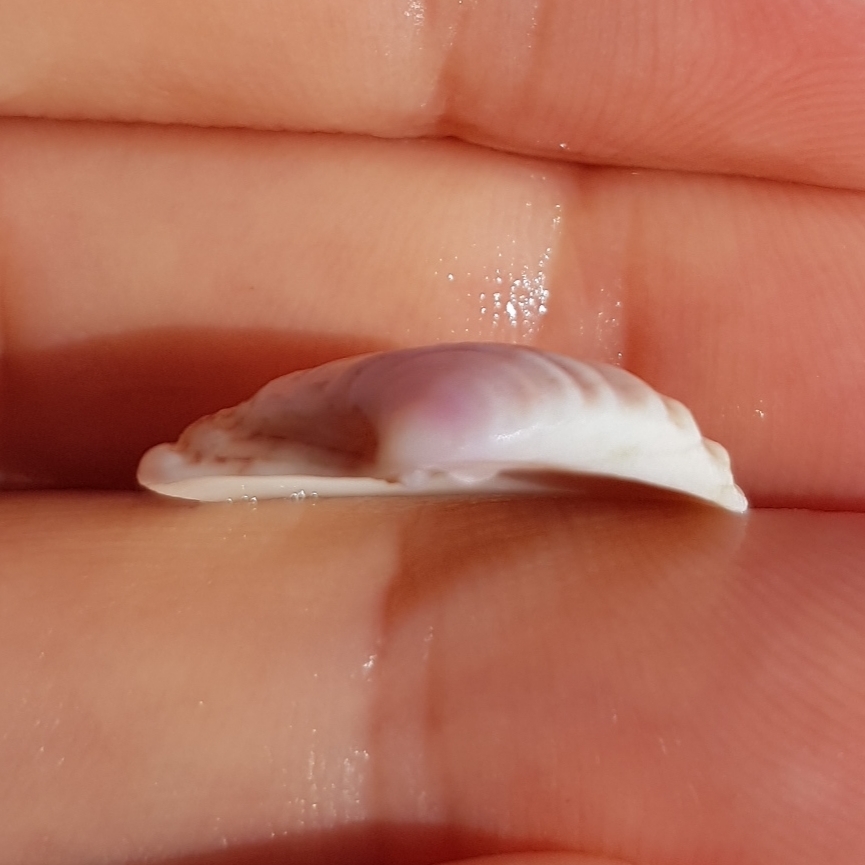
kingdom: Animalia
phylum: Mollusca
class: Bivalvia
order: Venerida
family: Veneridae
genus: Clausinella
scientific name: Clausinella fasciata
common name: Banded venus
